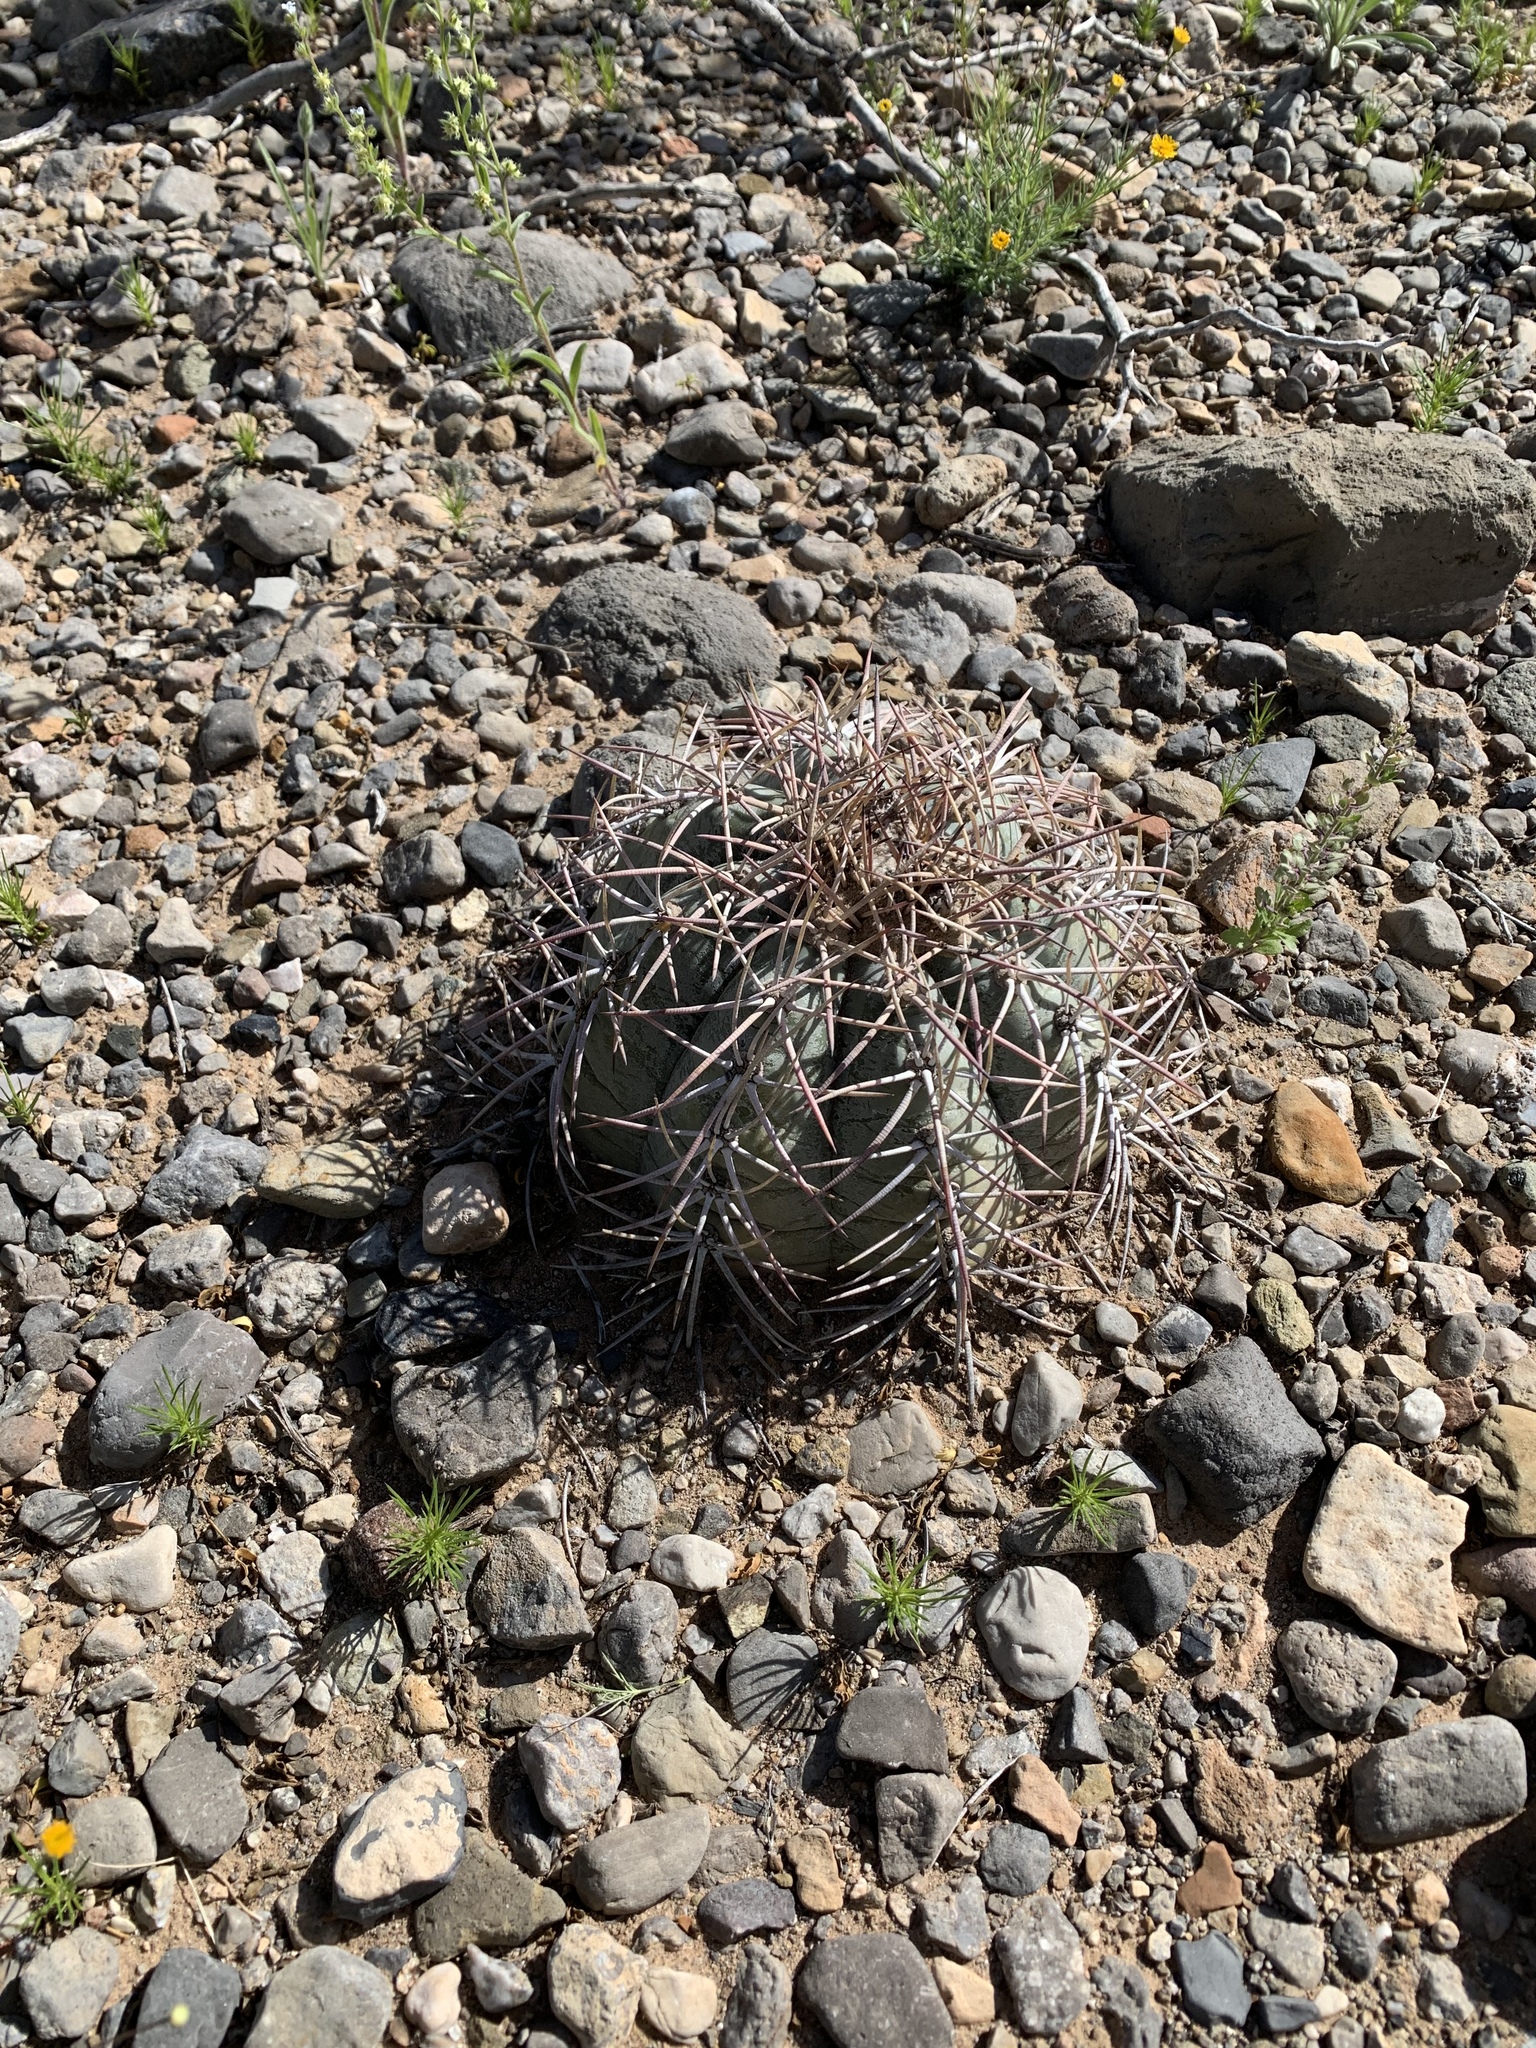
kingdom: Plantae
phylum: Tracheophyta
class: Magnoliopsida
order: Caryophyllales
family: Cactaceae
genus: Echinocactus
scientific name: Echinocactus horizonthalonius
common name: Devilshead
